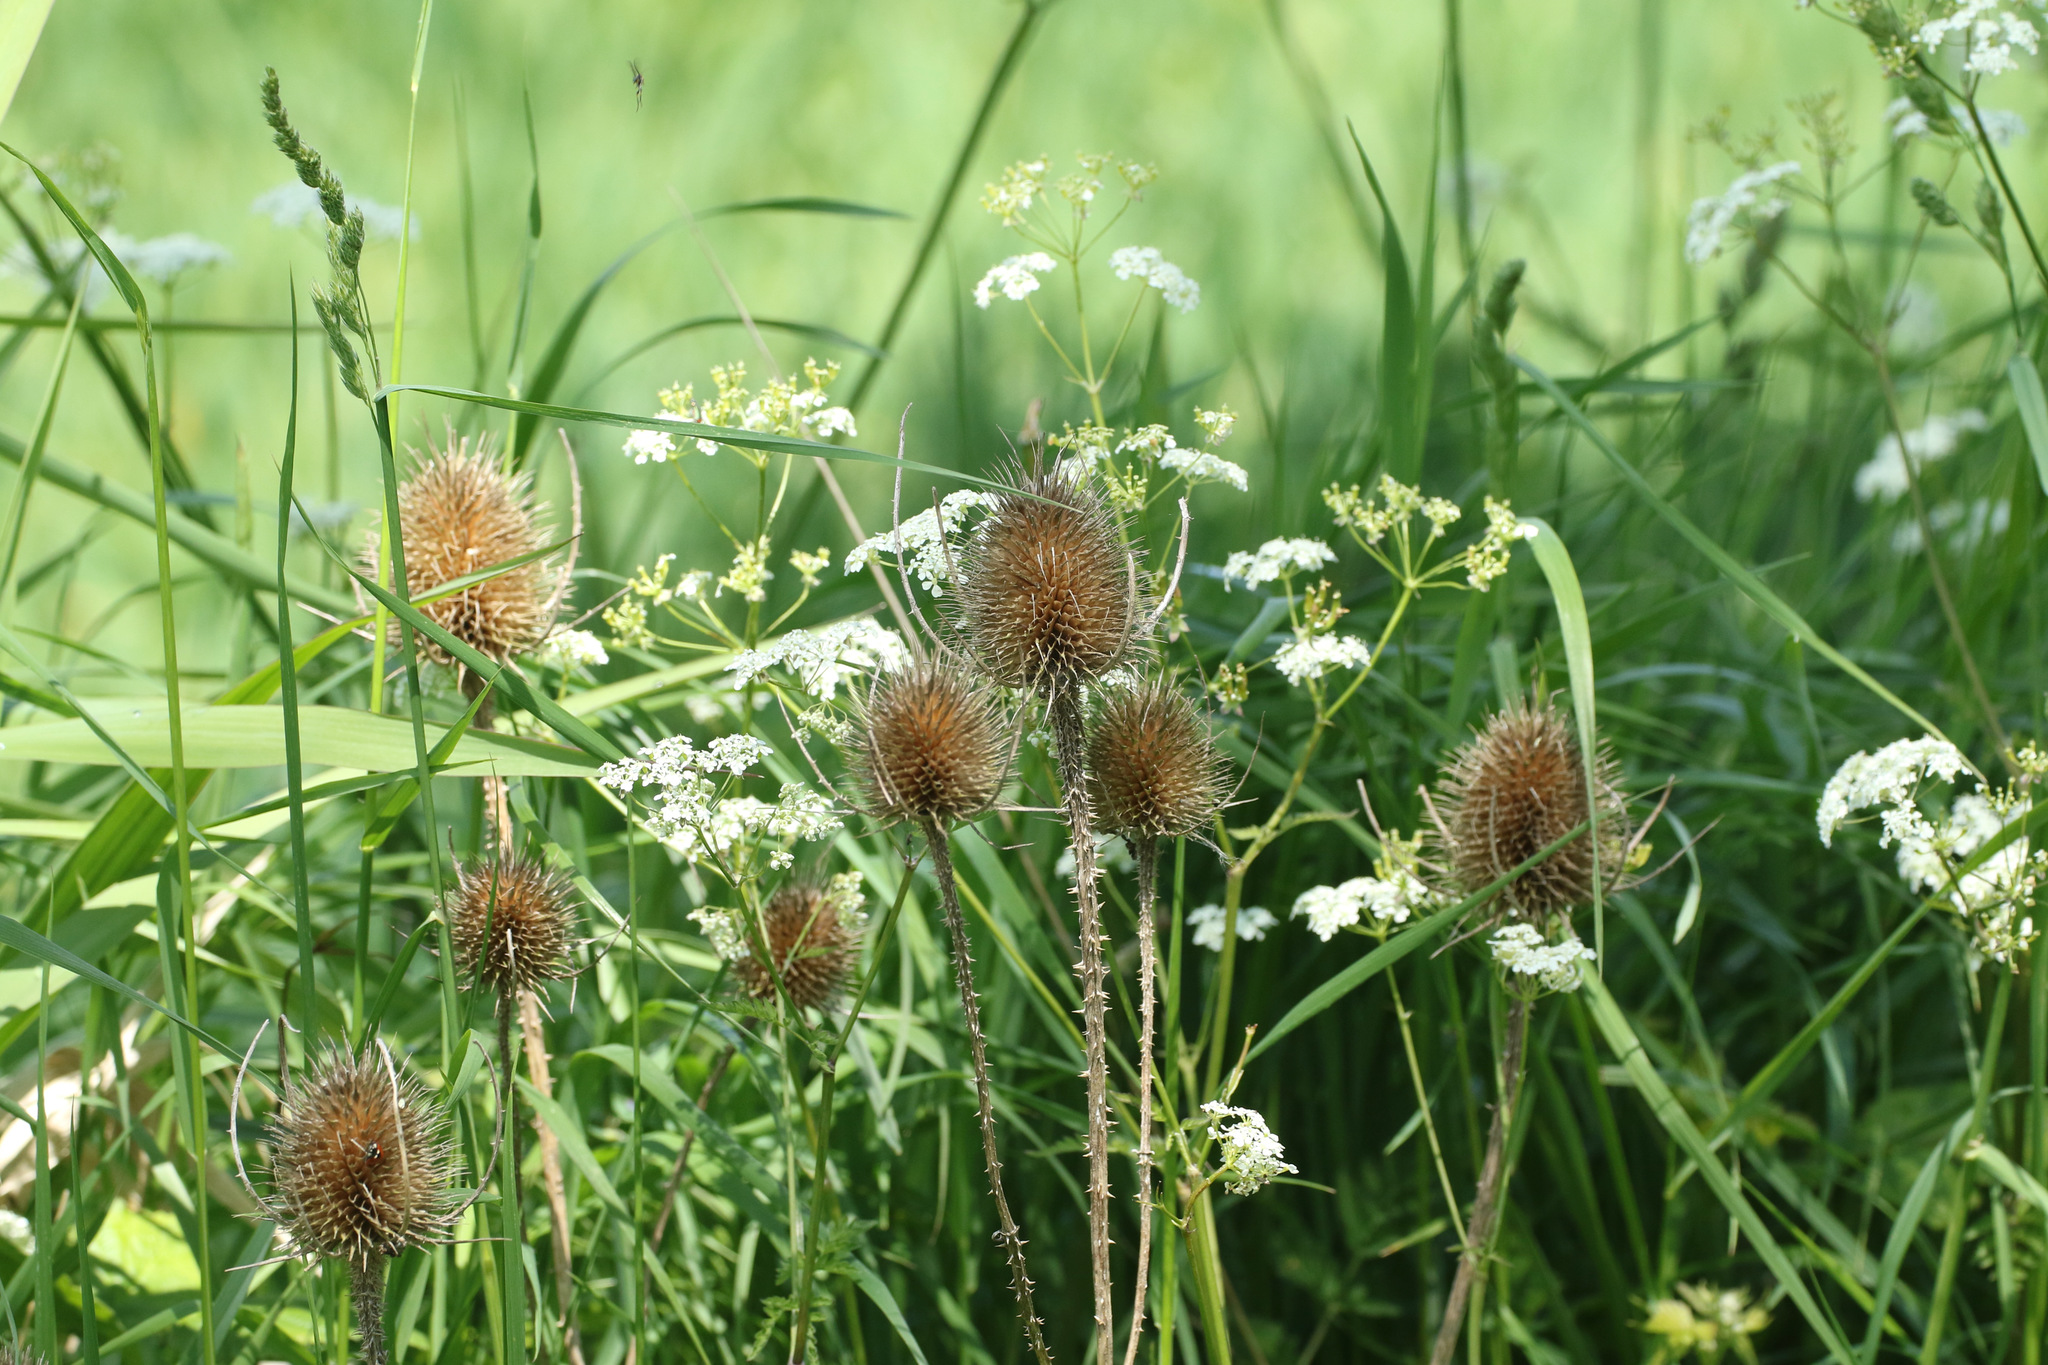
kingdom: Plantae
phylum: Tracheophyta
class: Magnoliopsida
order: Dipsacales
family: Caprifoliaceae
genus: Dipsacus
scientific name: Dipsacus fullonum
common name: Teasel
